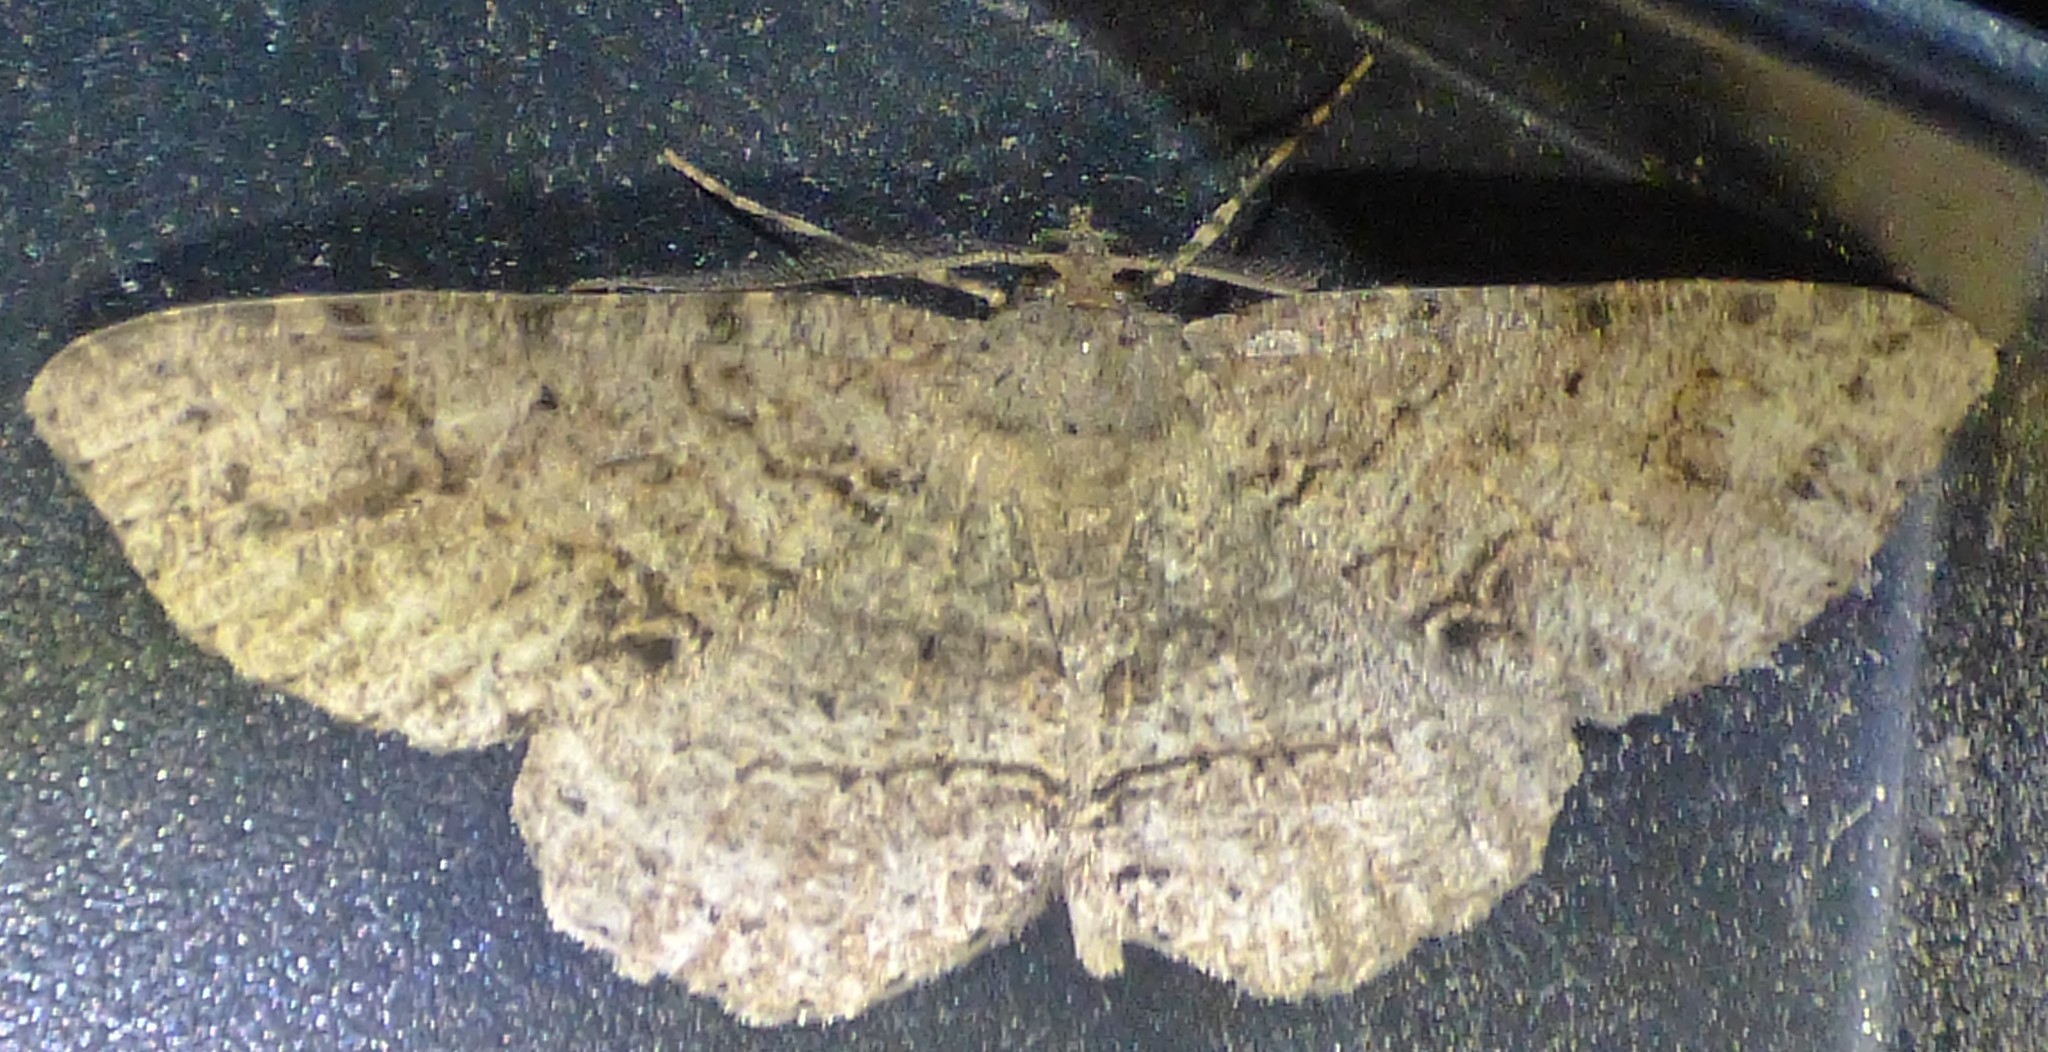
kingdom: Animalia
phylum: Arthropoda
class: Insecta
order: Lepidoptera
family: Geometridae
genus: Melanolophia
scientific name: Melanolophia canadaria
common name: Canadian melanolophia
